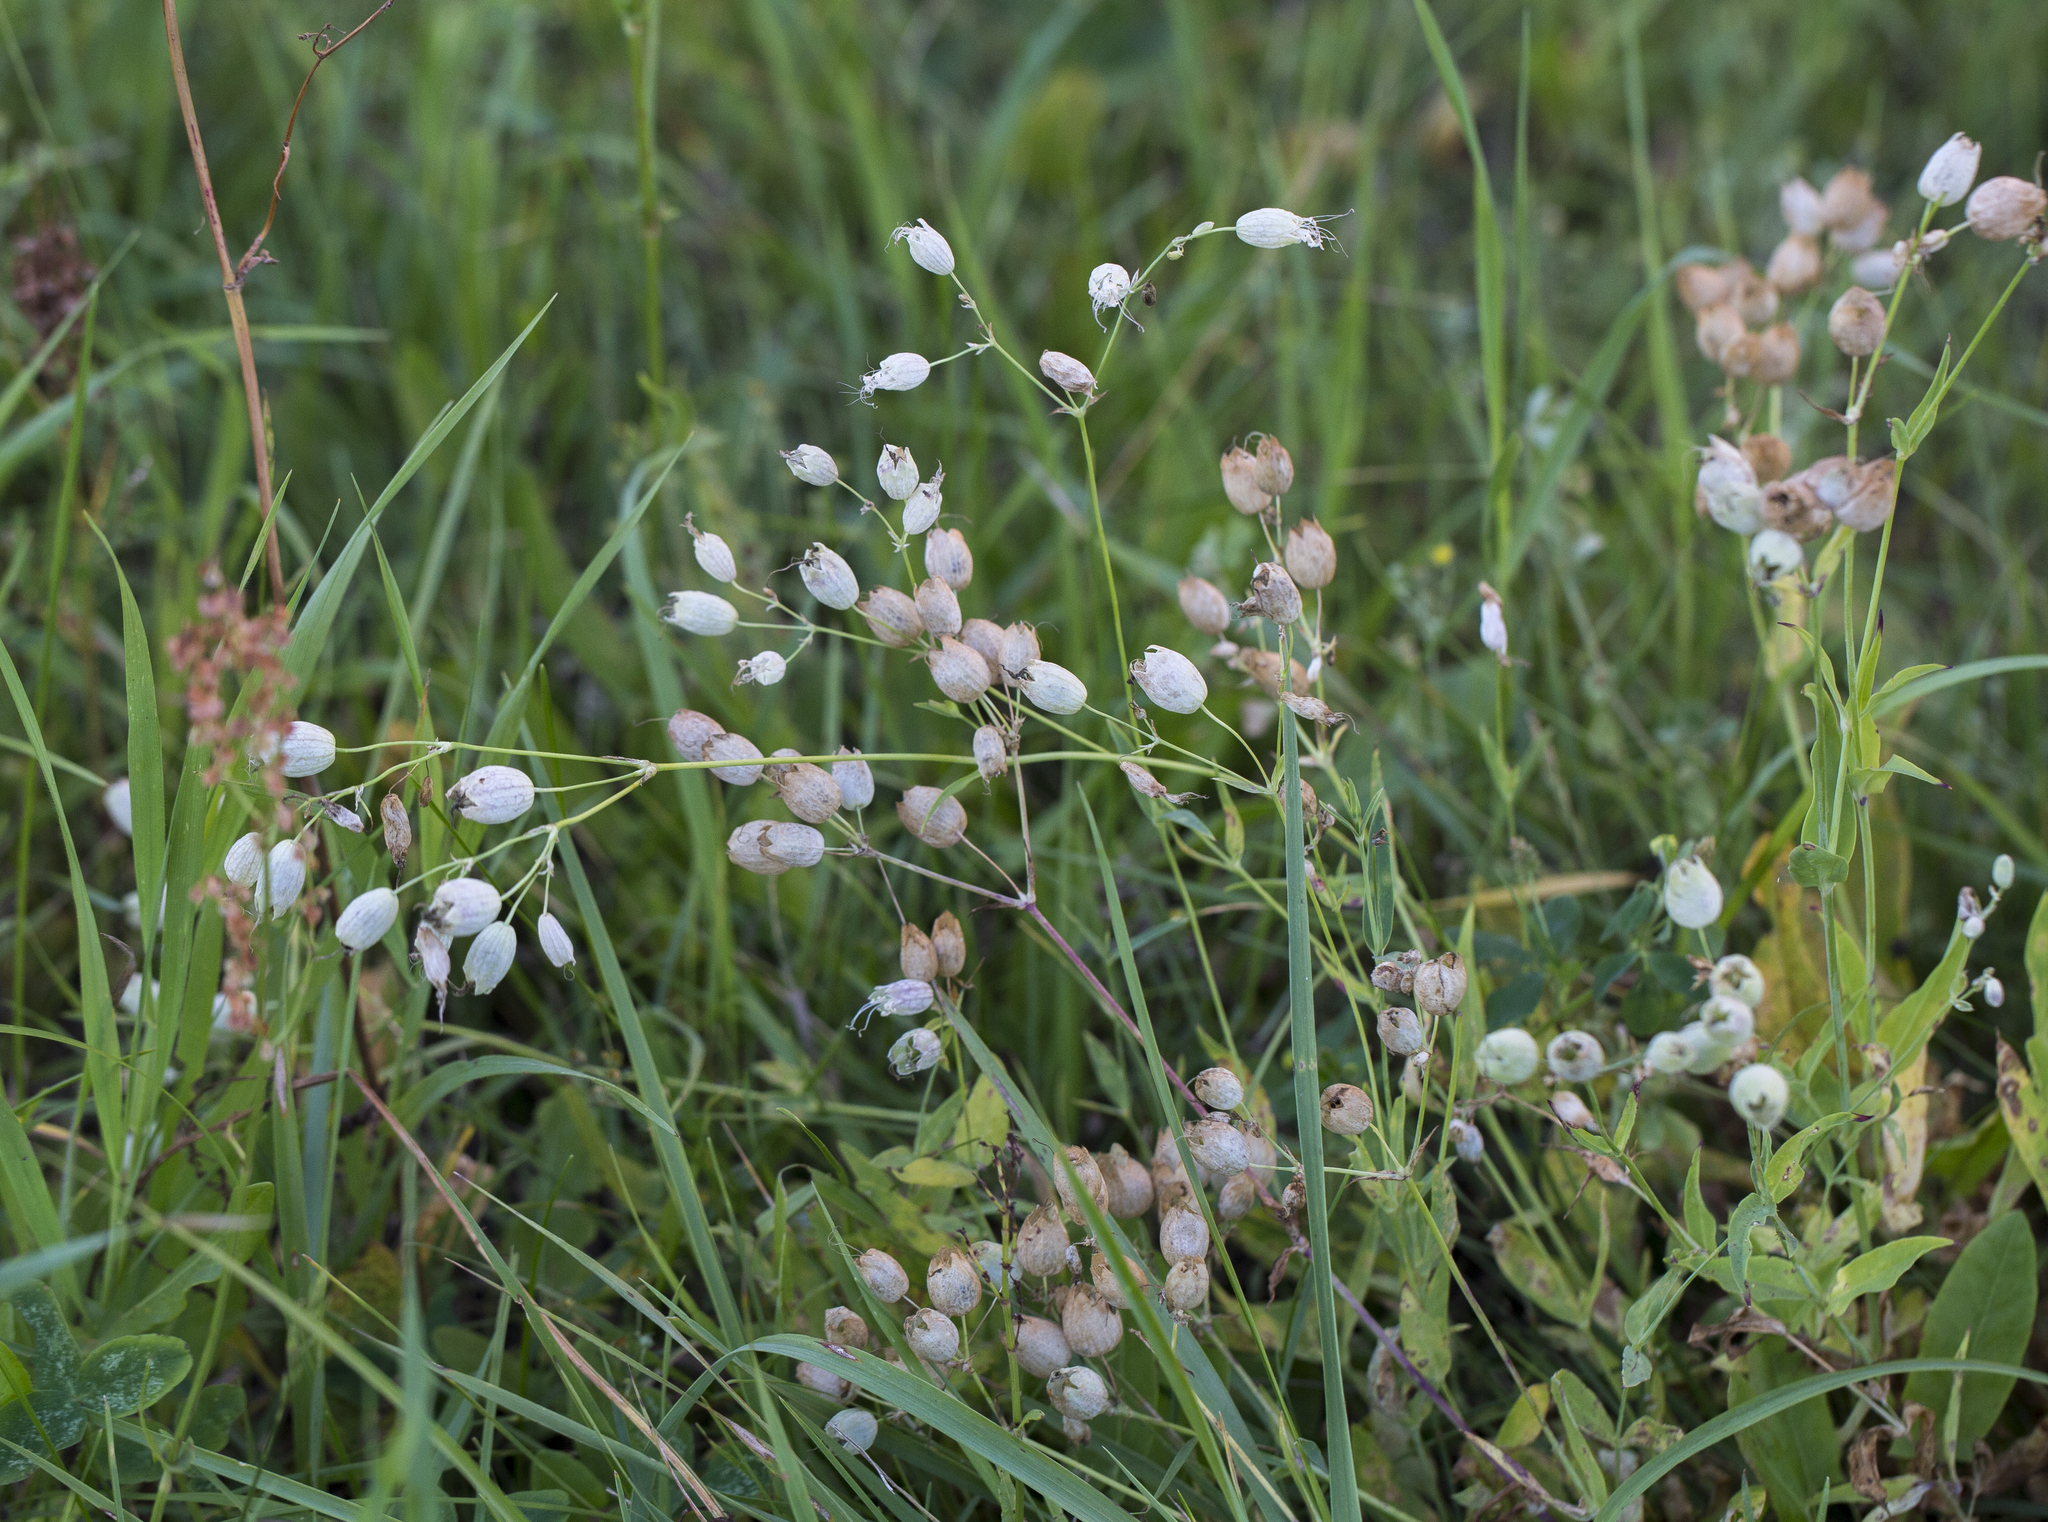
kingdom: Plantae
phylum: Tracheophyta
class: Magnoliopsida
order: Caryophyllales
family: Caryophyllaceae
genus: Silene
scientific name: Silene vulgaris
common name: Bladder campion
